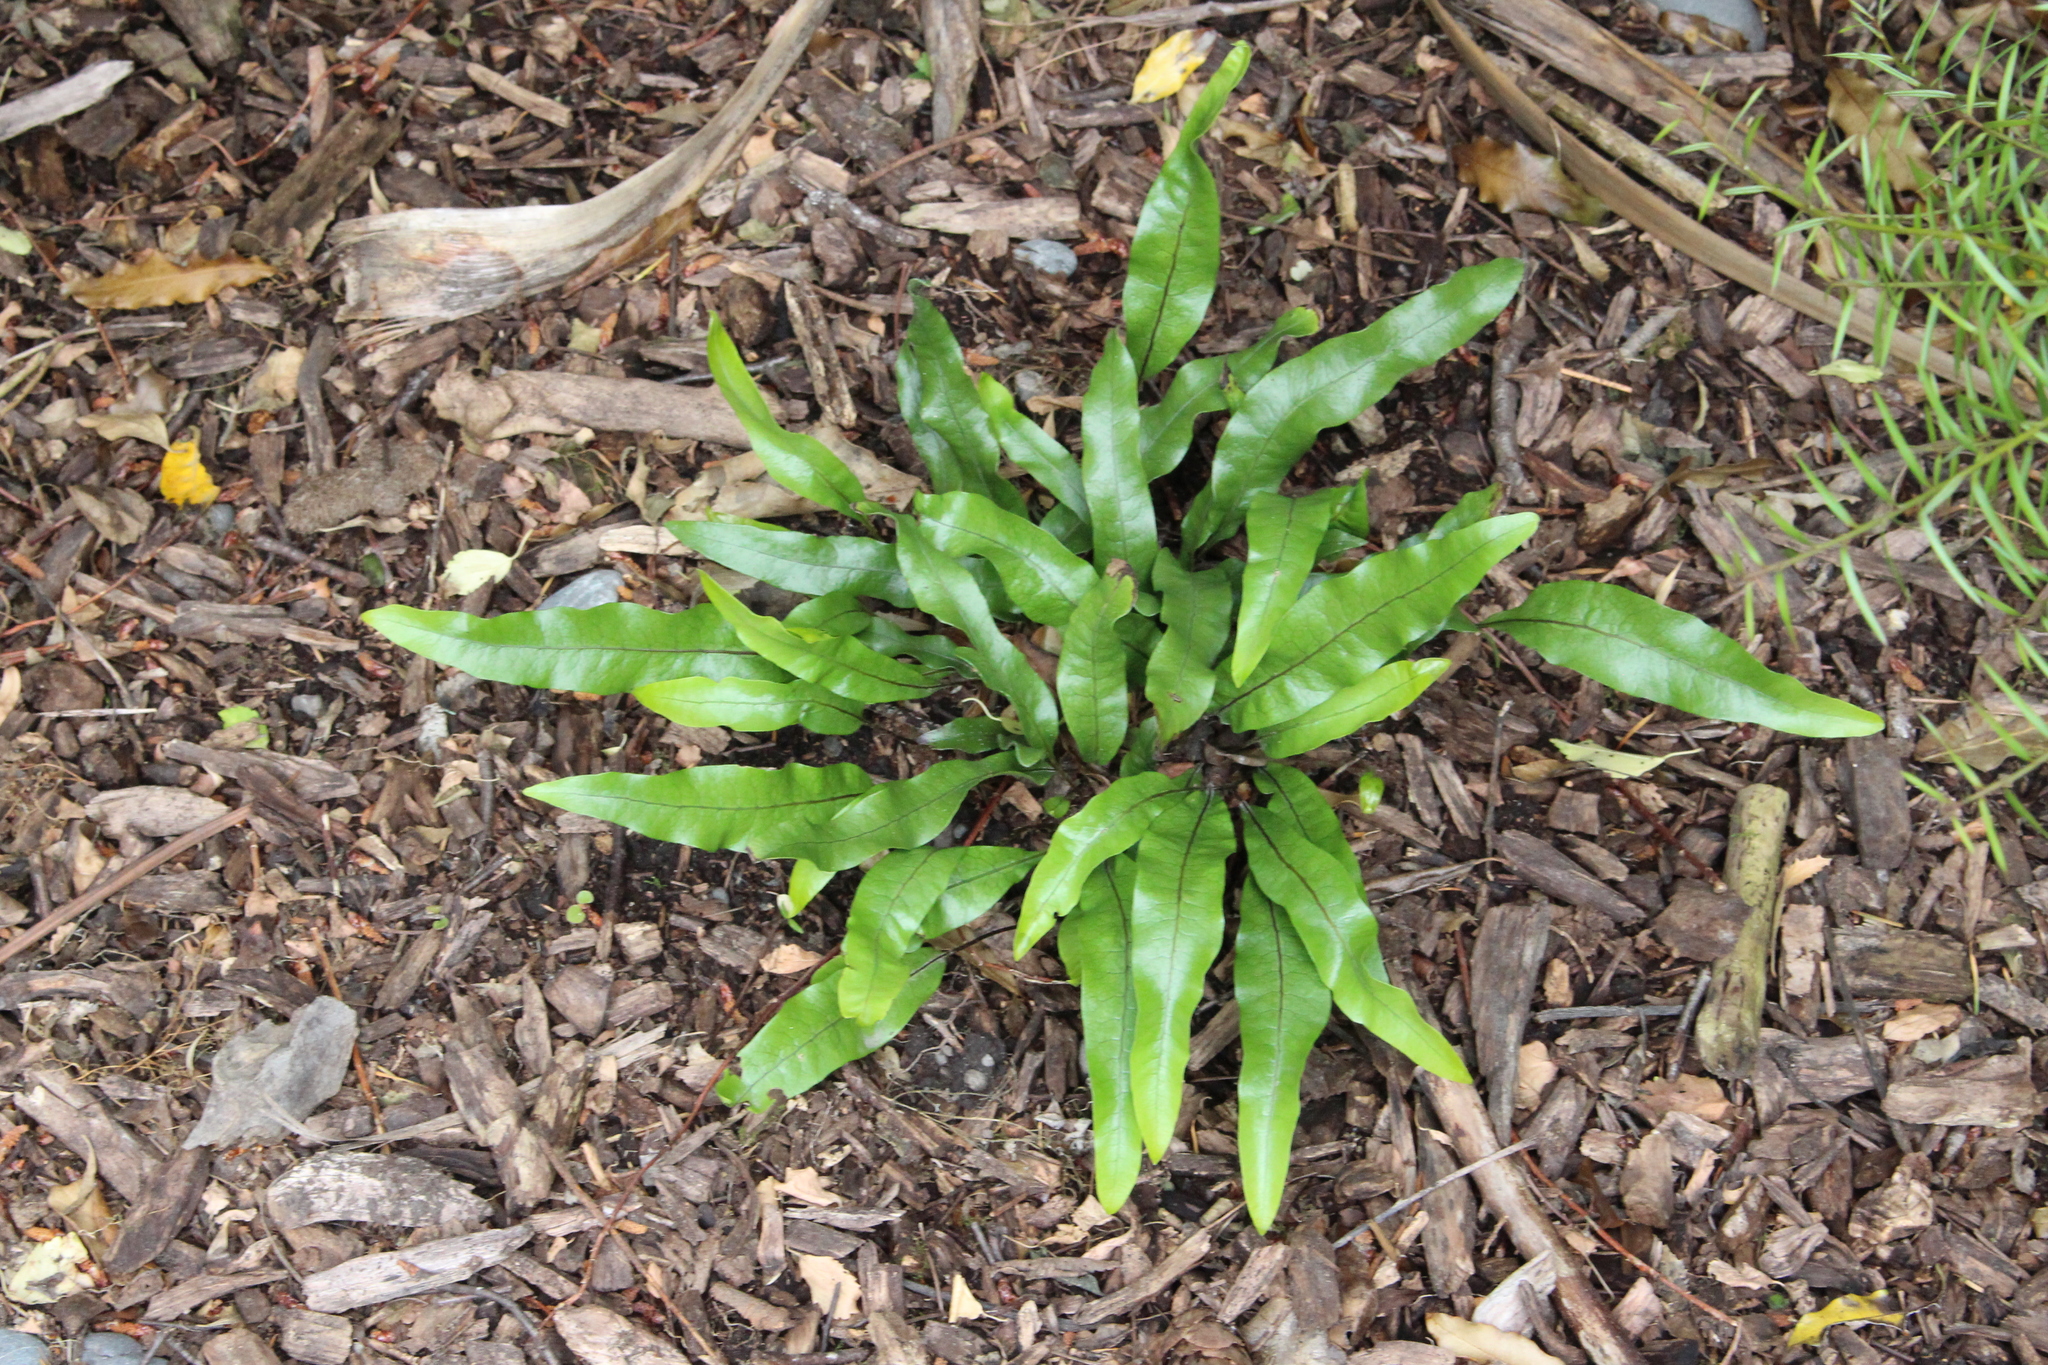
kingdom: Plantae
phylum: Tracheophyta
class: Polypodiopsida
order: Polypodiales
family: Polypodiaceae
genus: Lecanopteris
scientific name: Lecanopteris pustulata
